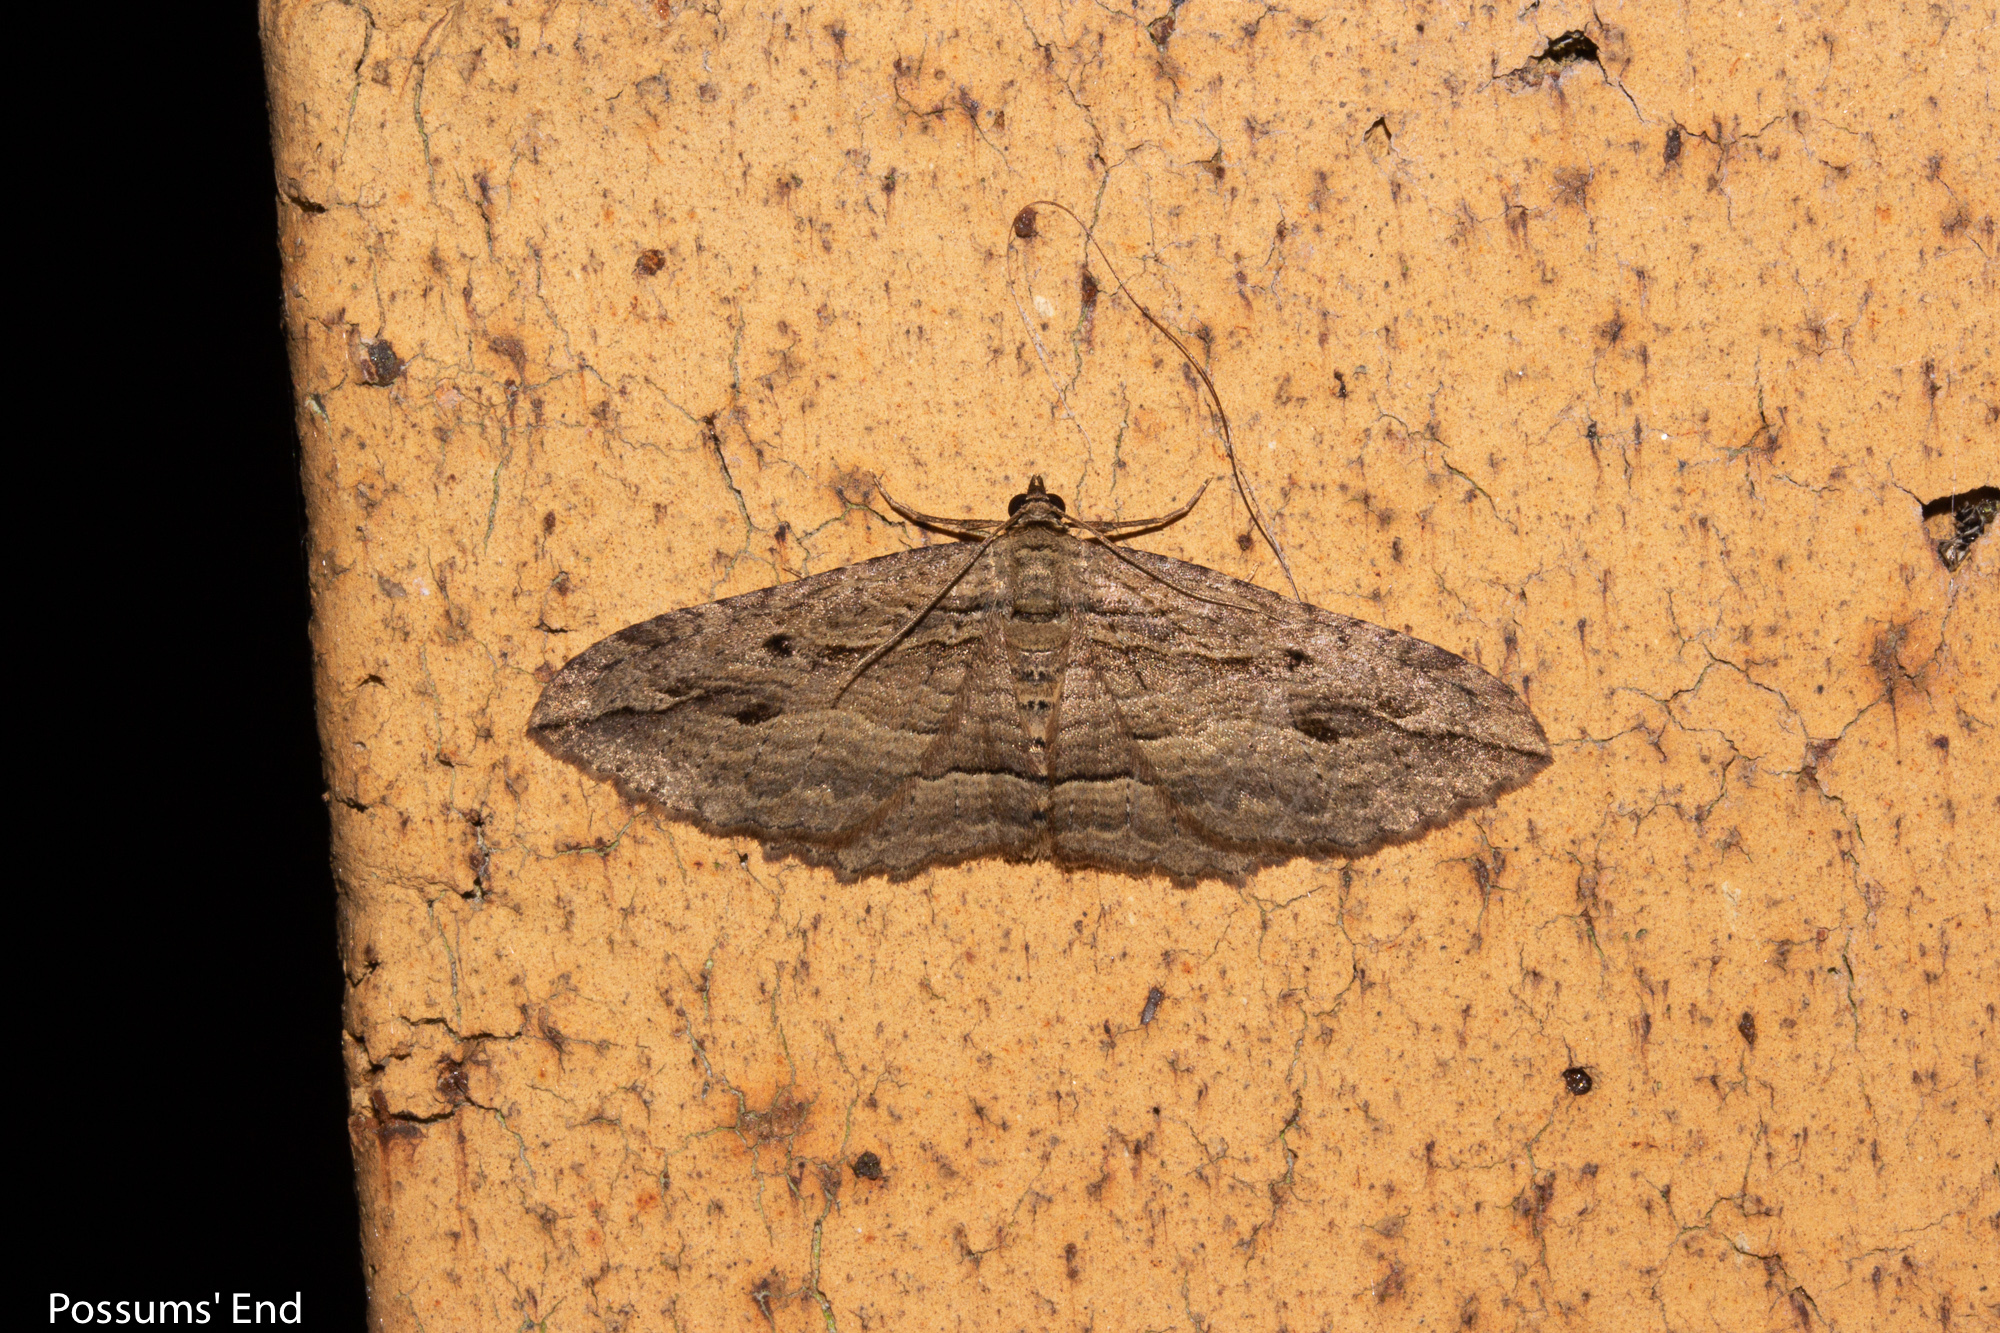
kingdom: Animalia
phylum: Arthropoda
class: Insecta
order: Lepidoptera
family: Geometridae
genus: Austrocidaria
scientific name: Austrocidaria gobiata
